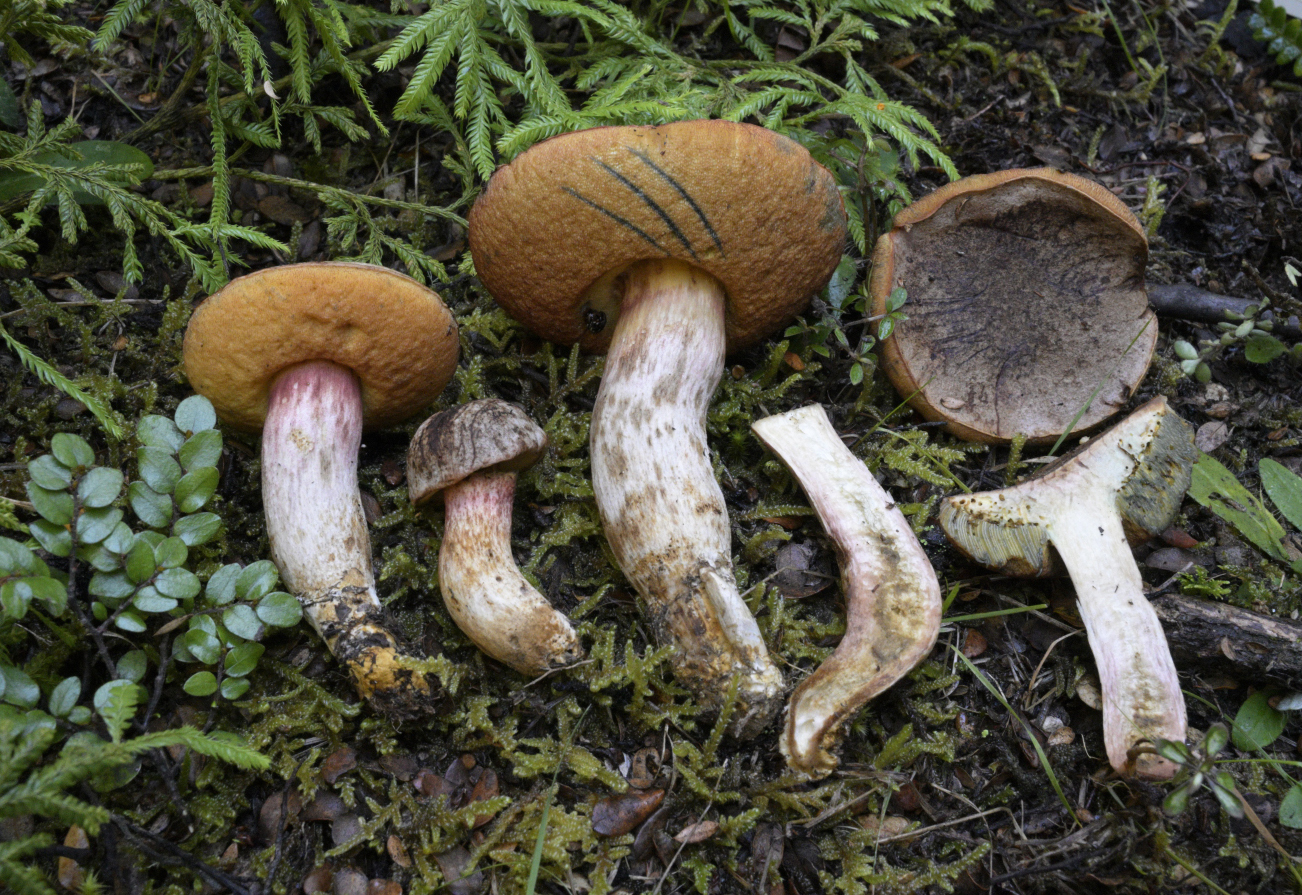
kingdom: Fungi
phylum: Basidiomycota
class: Agaricomycetes
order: Boletales
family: Boletaceae
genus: Xerocomus
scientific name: Xerocomus leptospermi
